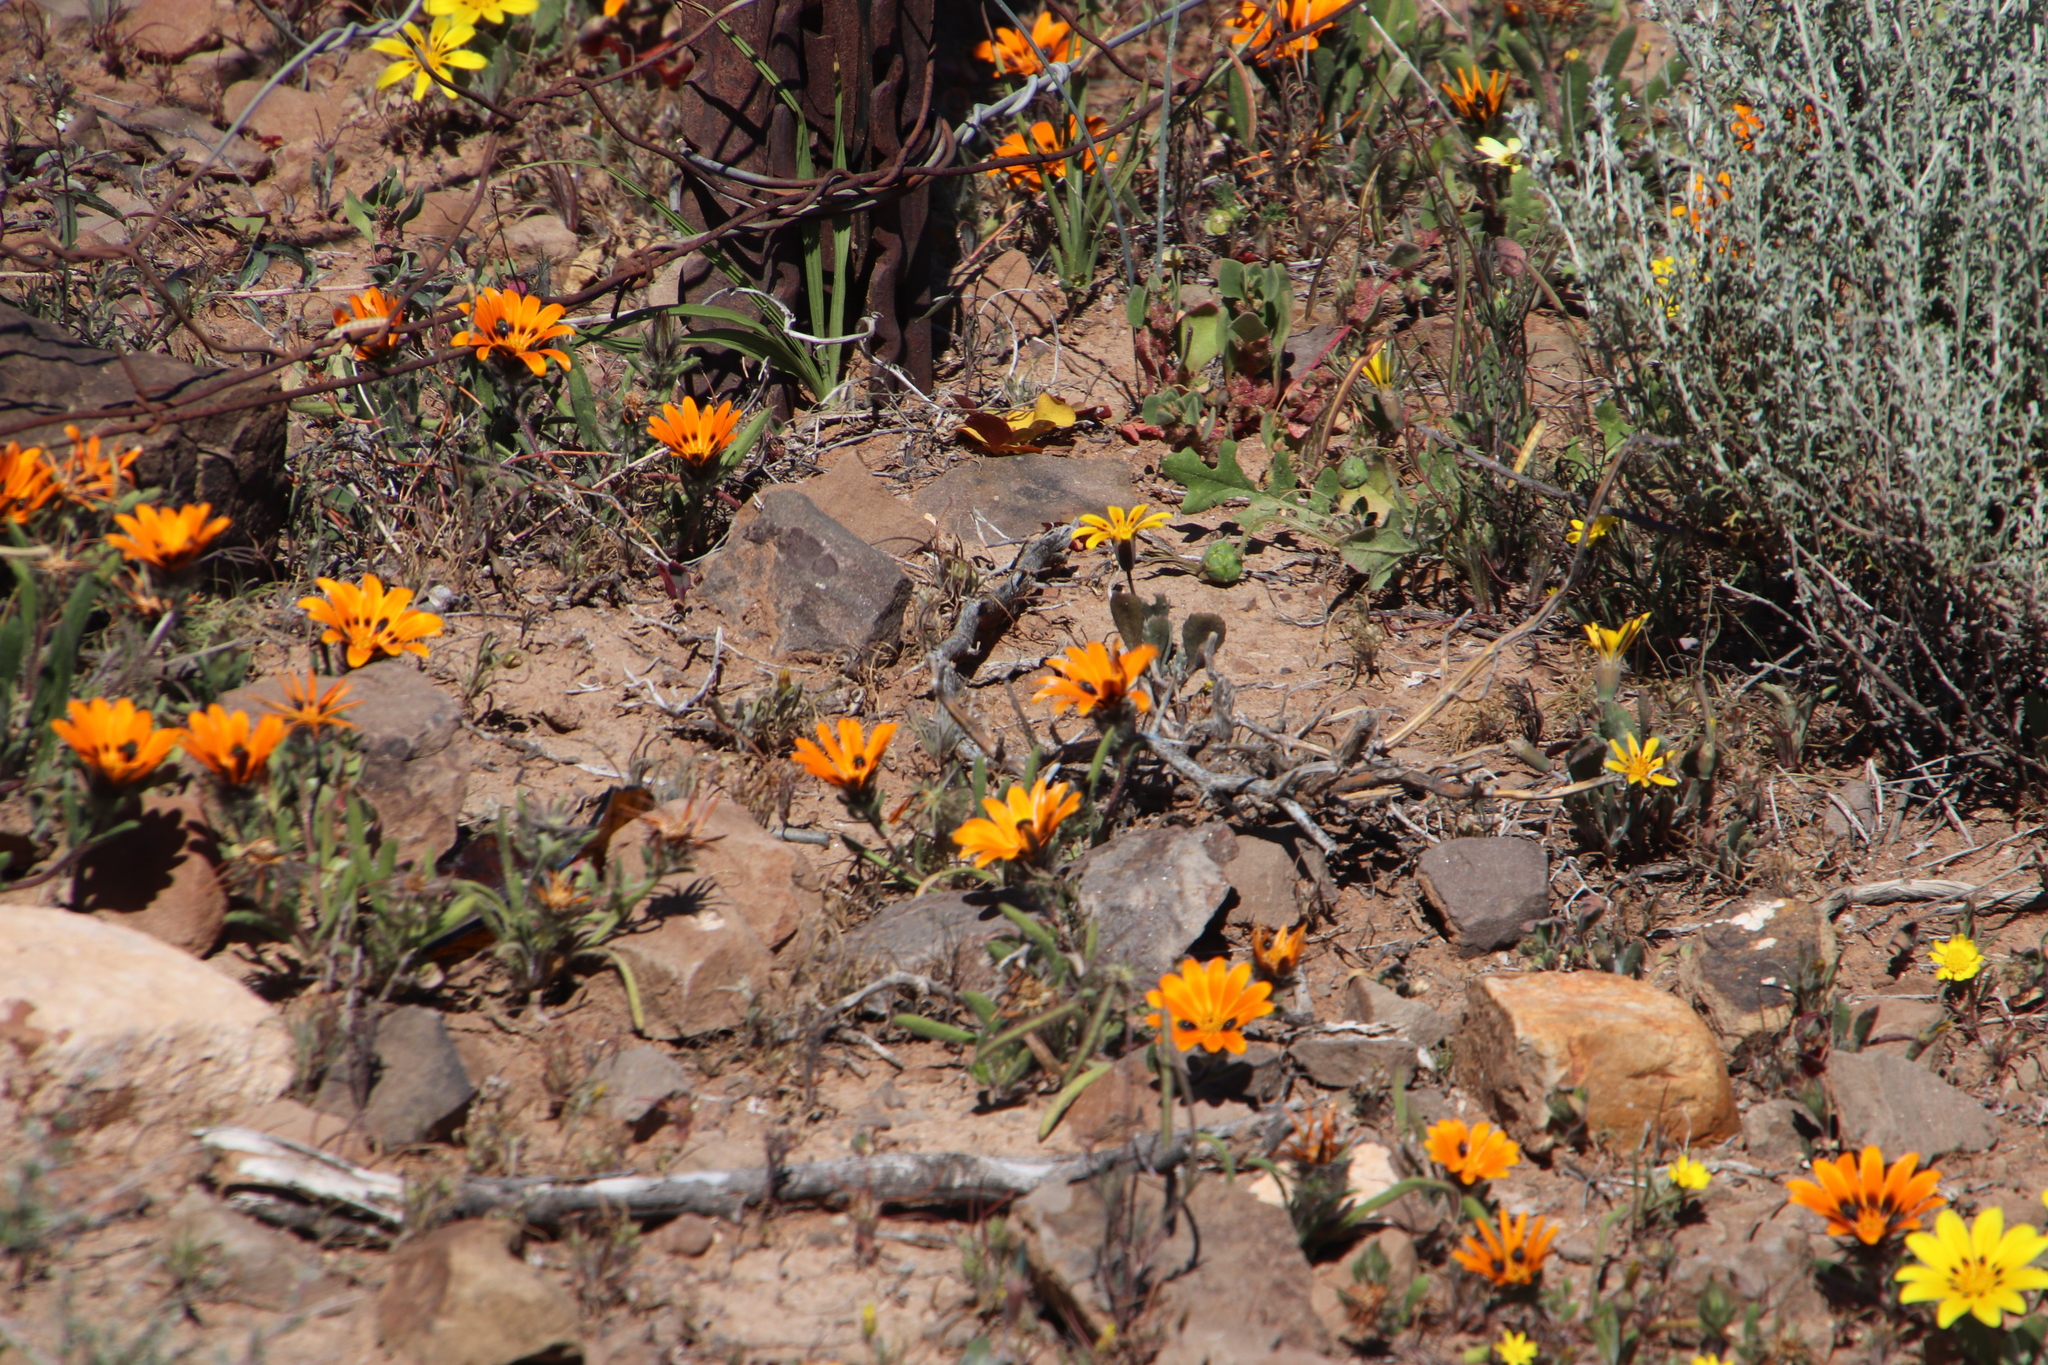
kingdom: Plantae
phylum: Tracheophyta
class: Magnoliopsida
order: Asterales
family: Asteraceae
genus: Gorteria
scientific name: Gorteria diffusa
